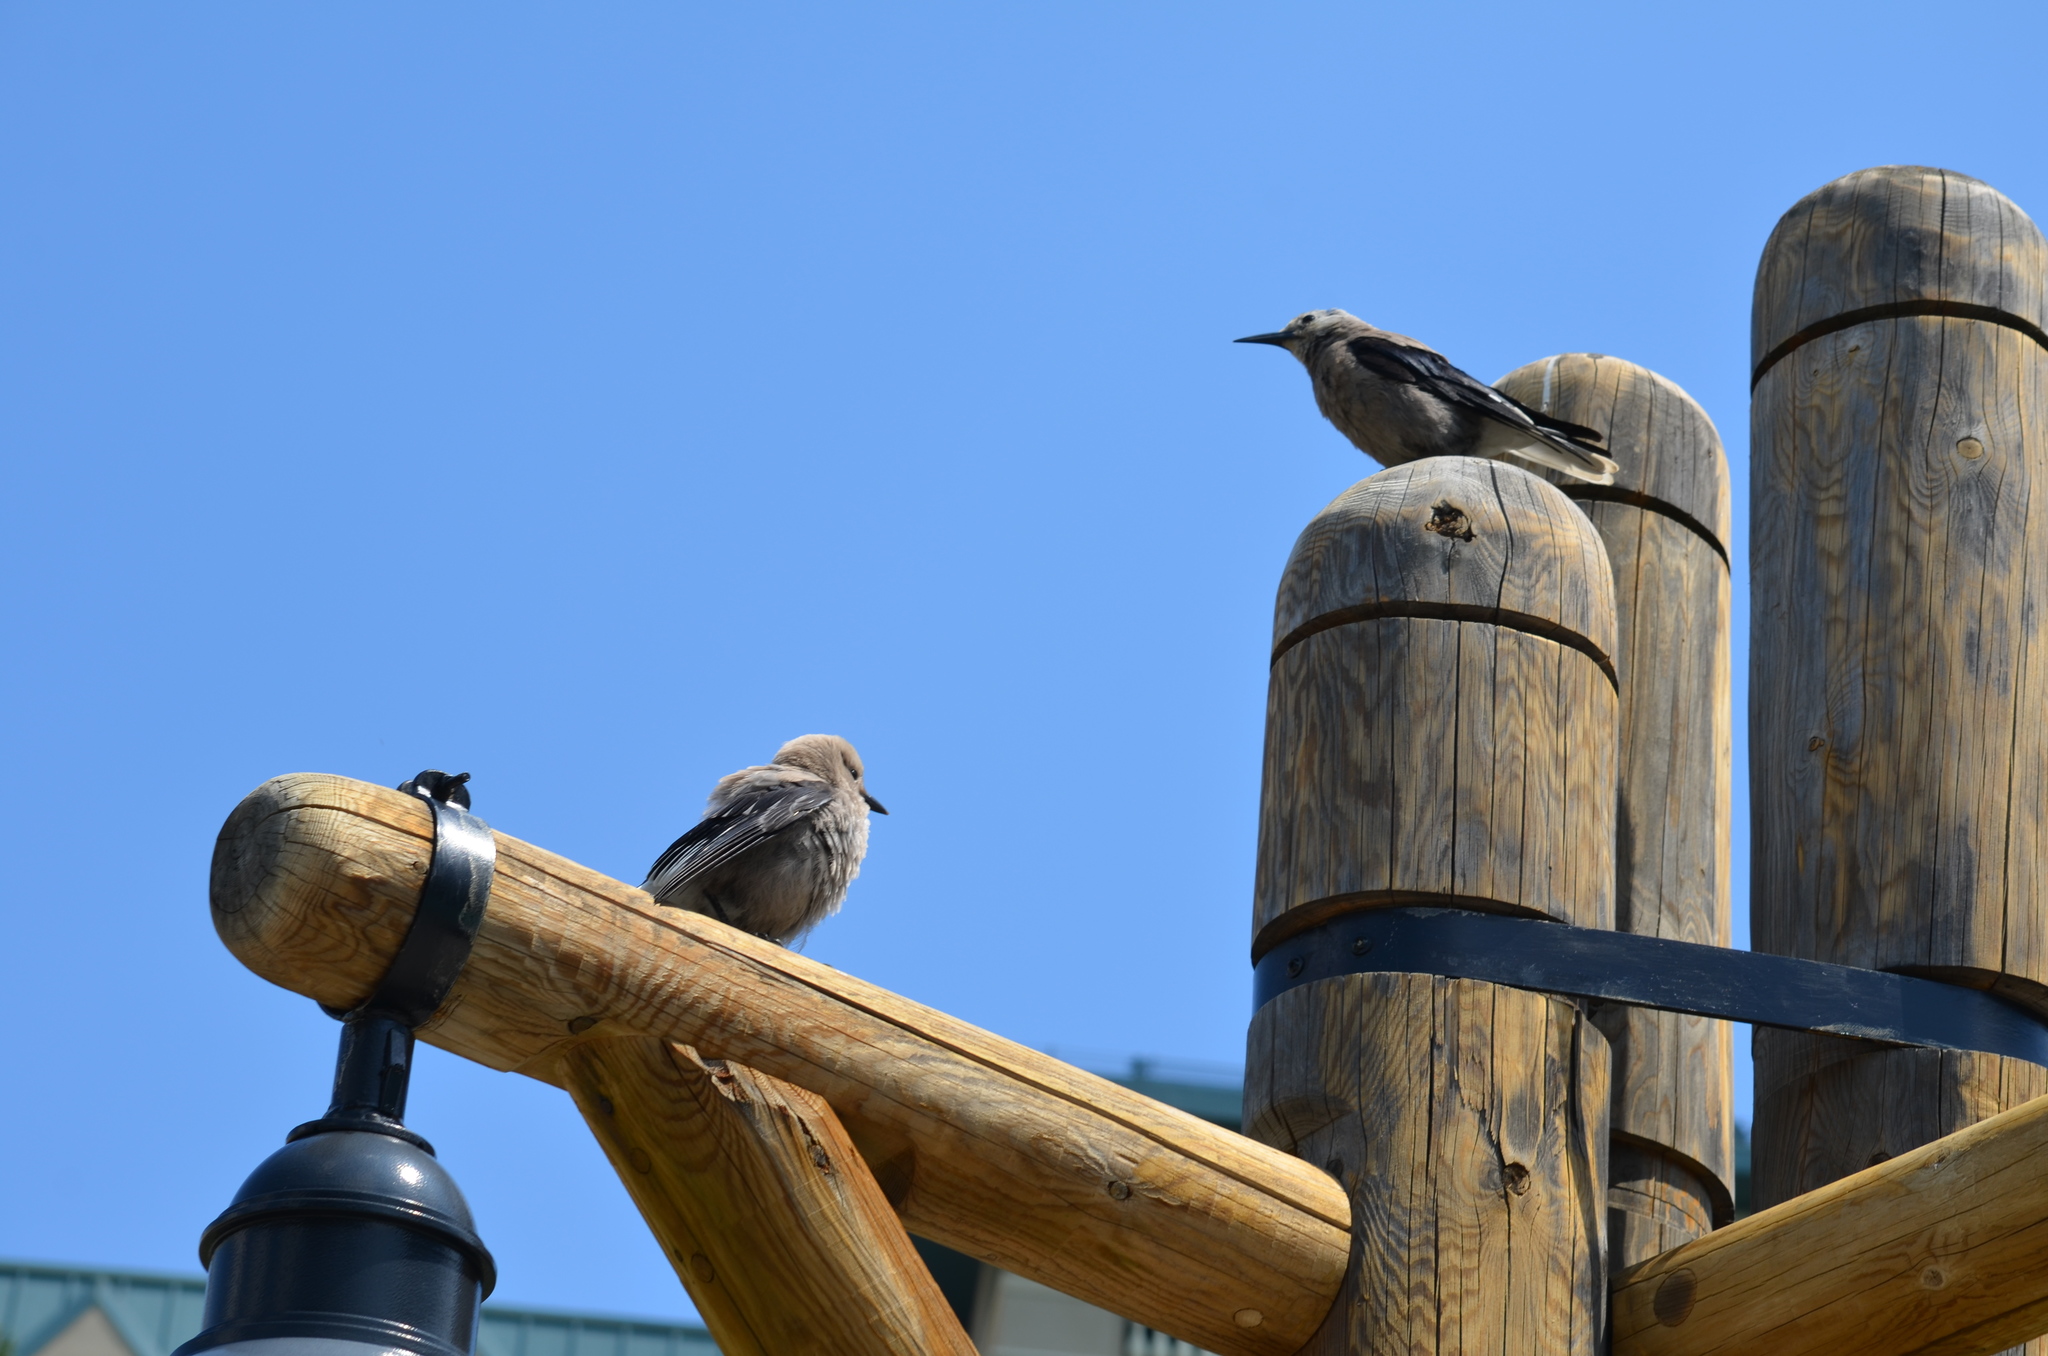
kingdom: Animalia
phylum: Chordata
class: Aves
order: Passeriformes
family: Corvidae
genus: Nucifraga
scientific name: Nucifraga columbiana
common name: Clark's nutcracker
